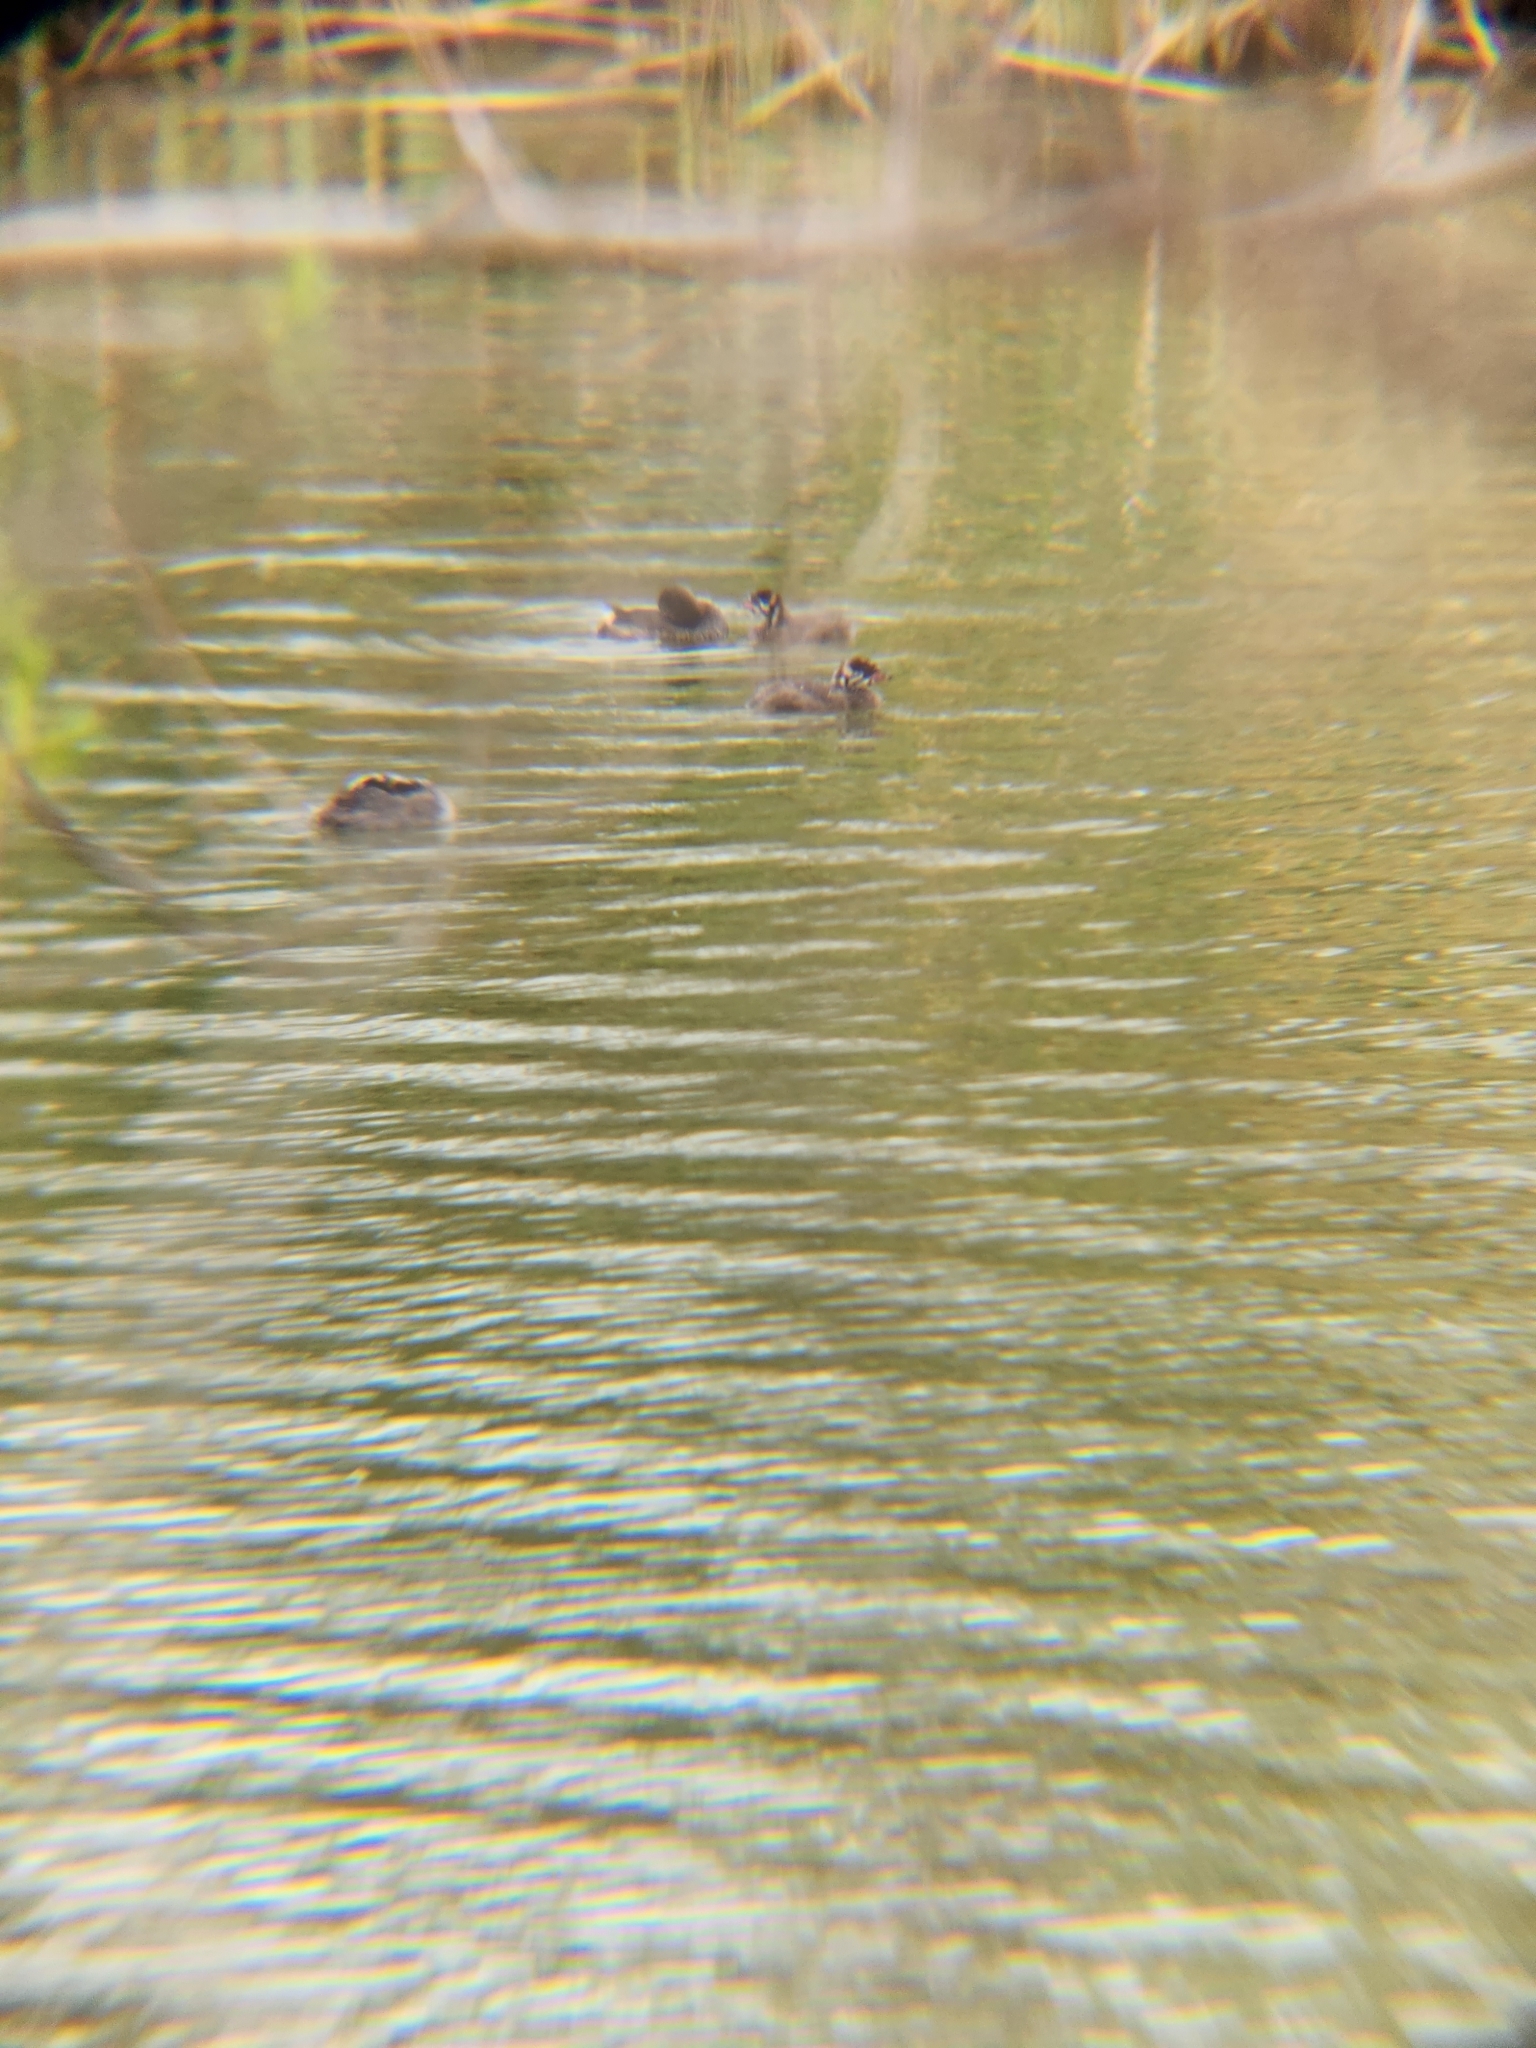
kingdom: Animalia
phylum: Chordata
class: Aves
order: Podicipediformes
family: Podicipedidae
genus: Podilymbus
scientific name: Podilymbus podiceps
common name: Pied-billed grebe
